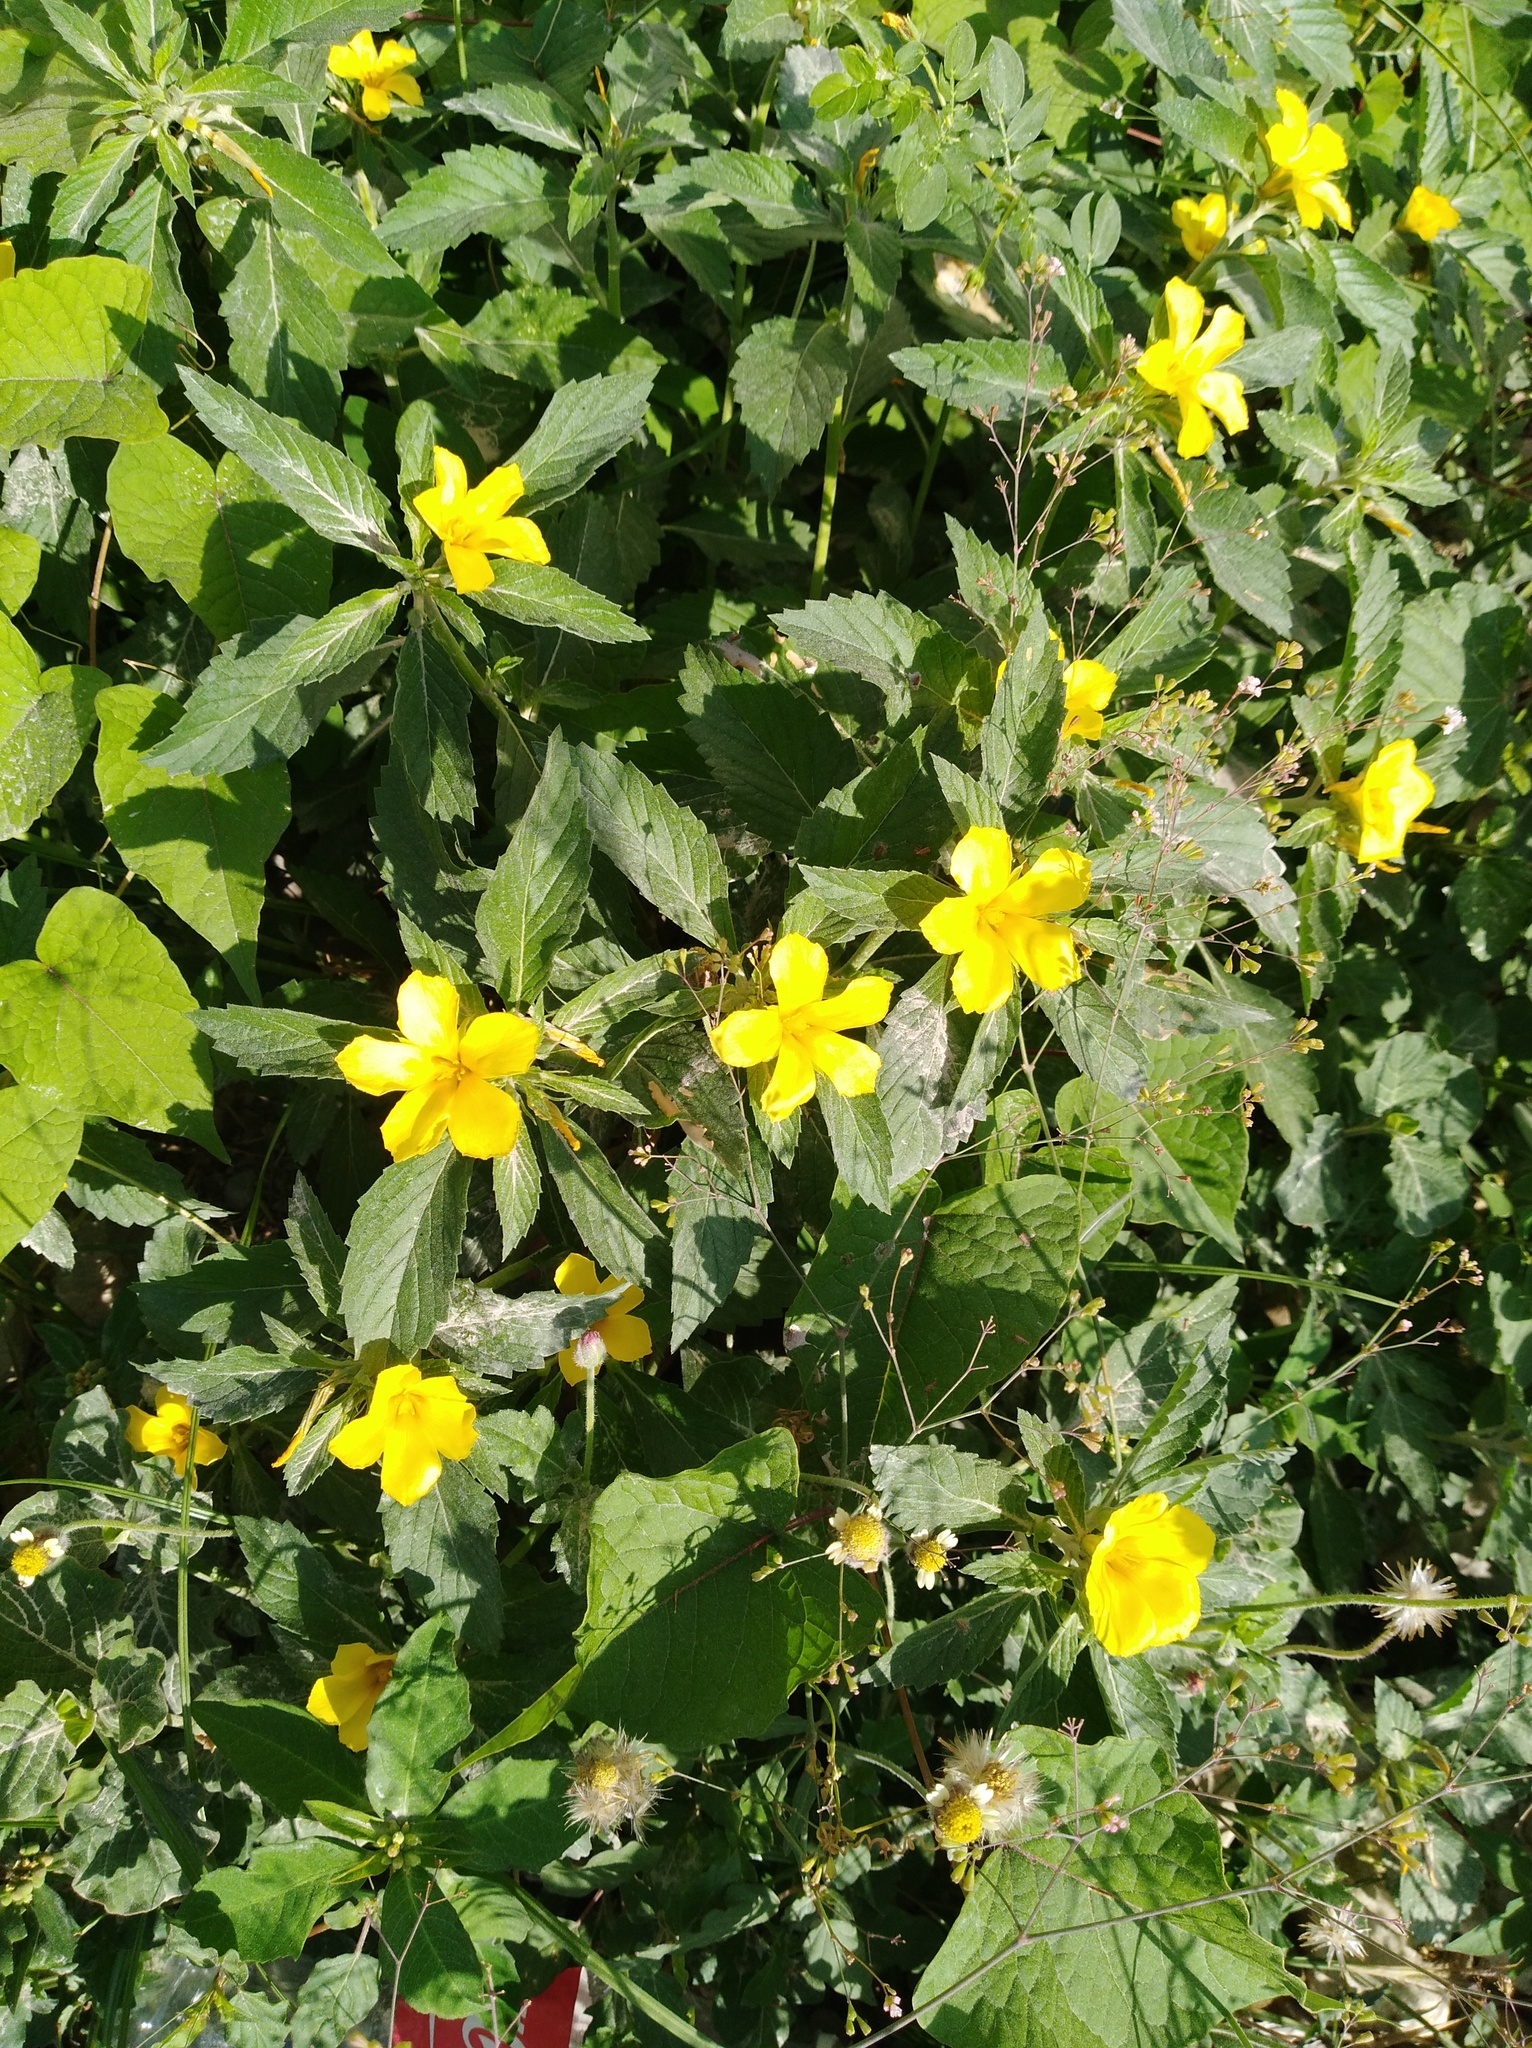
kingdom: Plantae
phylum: Tracheophyta
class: Magnoliopsida
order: Malpighiales
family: Turneraceae
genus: Turnera
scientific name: Turnera ulmifolia
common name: Ramgoat dashalong
